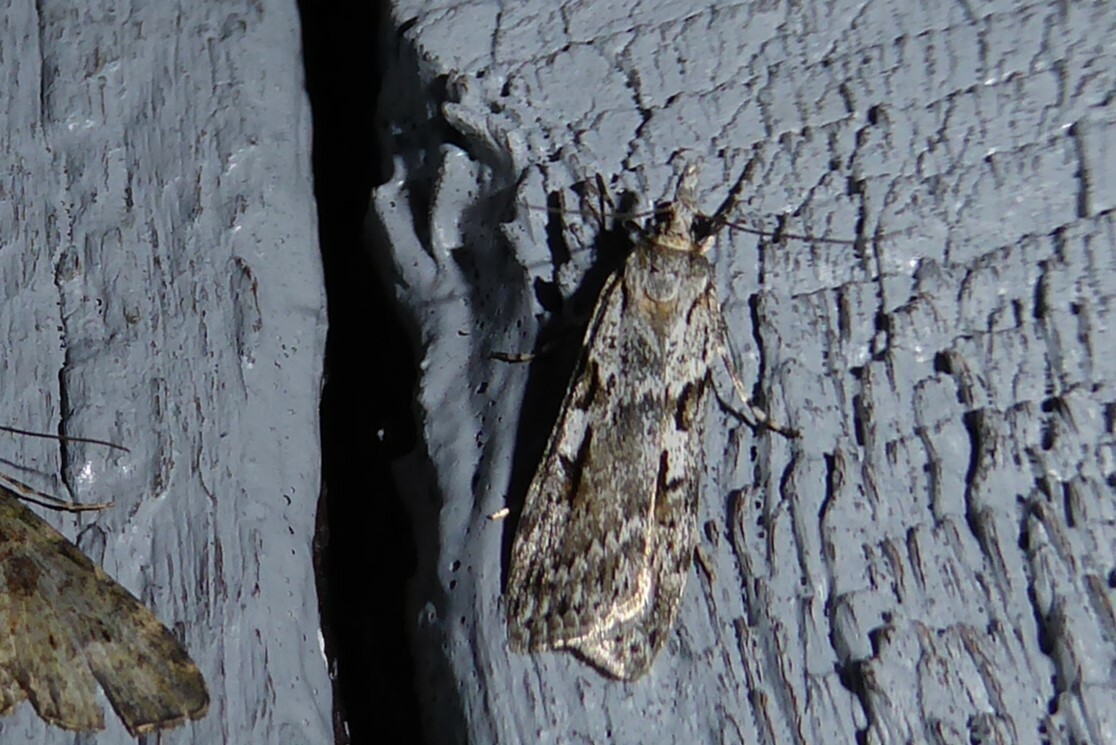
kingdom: Animalia
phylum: Arthropoda
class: Insecta
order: Lepidoptera
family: Crambidae
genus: Scoparia
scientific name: Scoparia halopis
